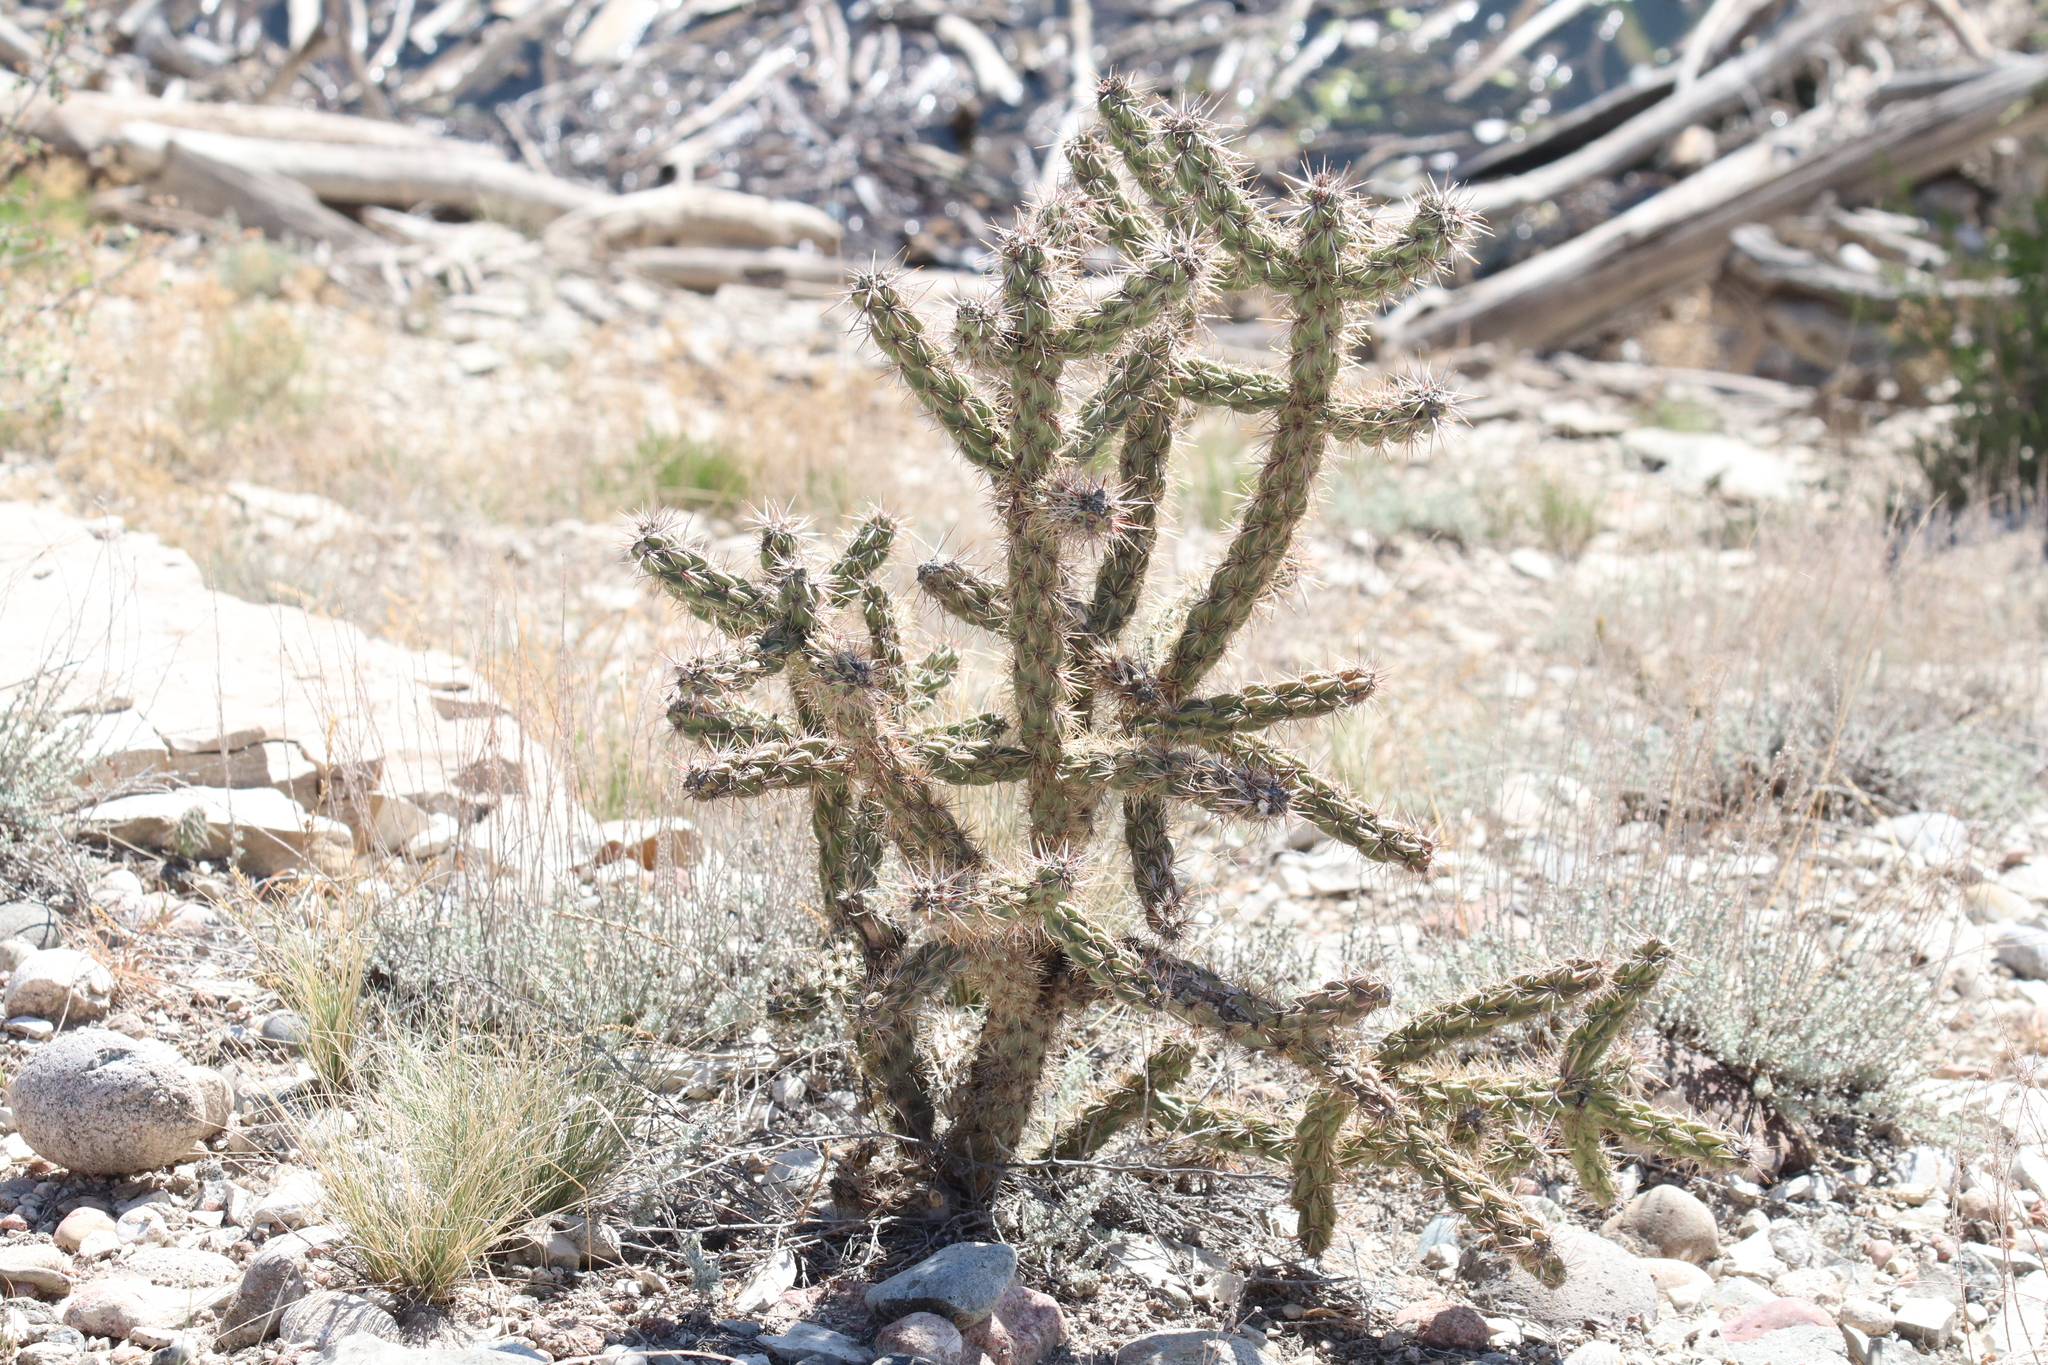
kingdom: Plantae
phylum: Tracheophyta
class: Magnoliopsida
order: Caryophyllales
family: Cactaceae
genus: Cylindropuntia
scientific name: Cylindropuntia imbricata
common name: Candelabrum cactus
